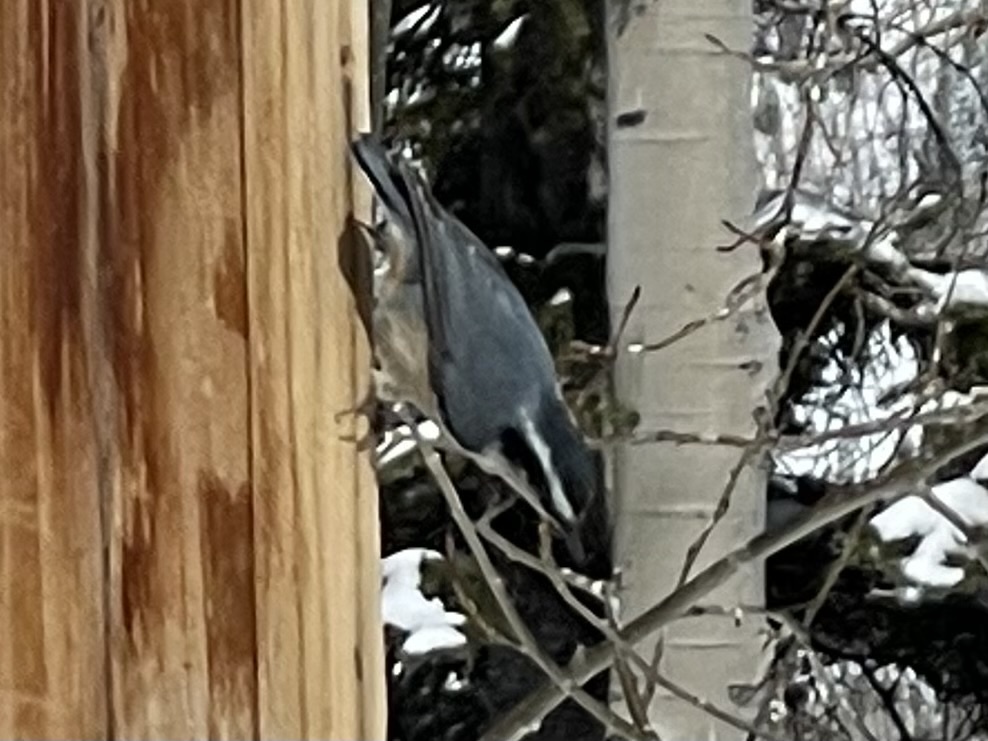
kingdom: Animalia
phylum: Chordata
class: Aves
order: Passeriformes
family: Sittidae
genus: Sitta
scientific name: Sitta canadensis
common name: Red-breasted nuthatch
